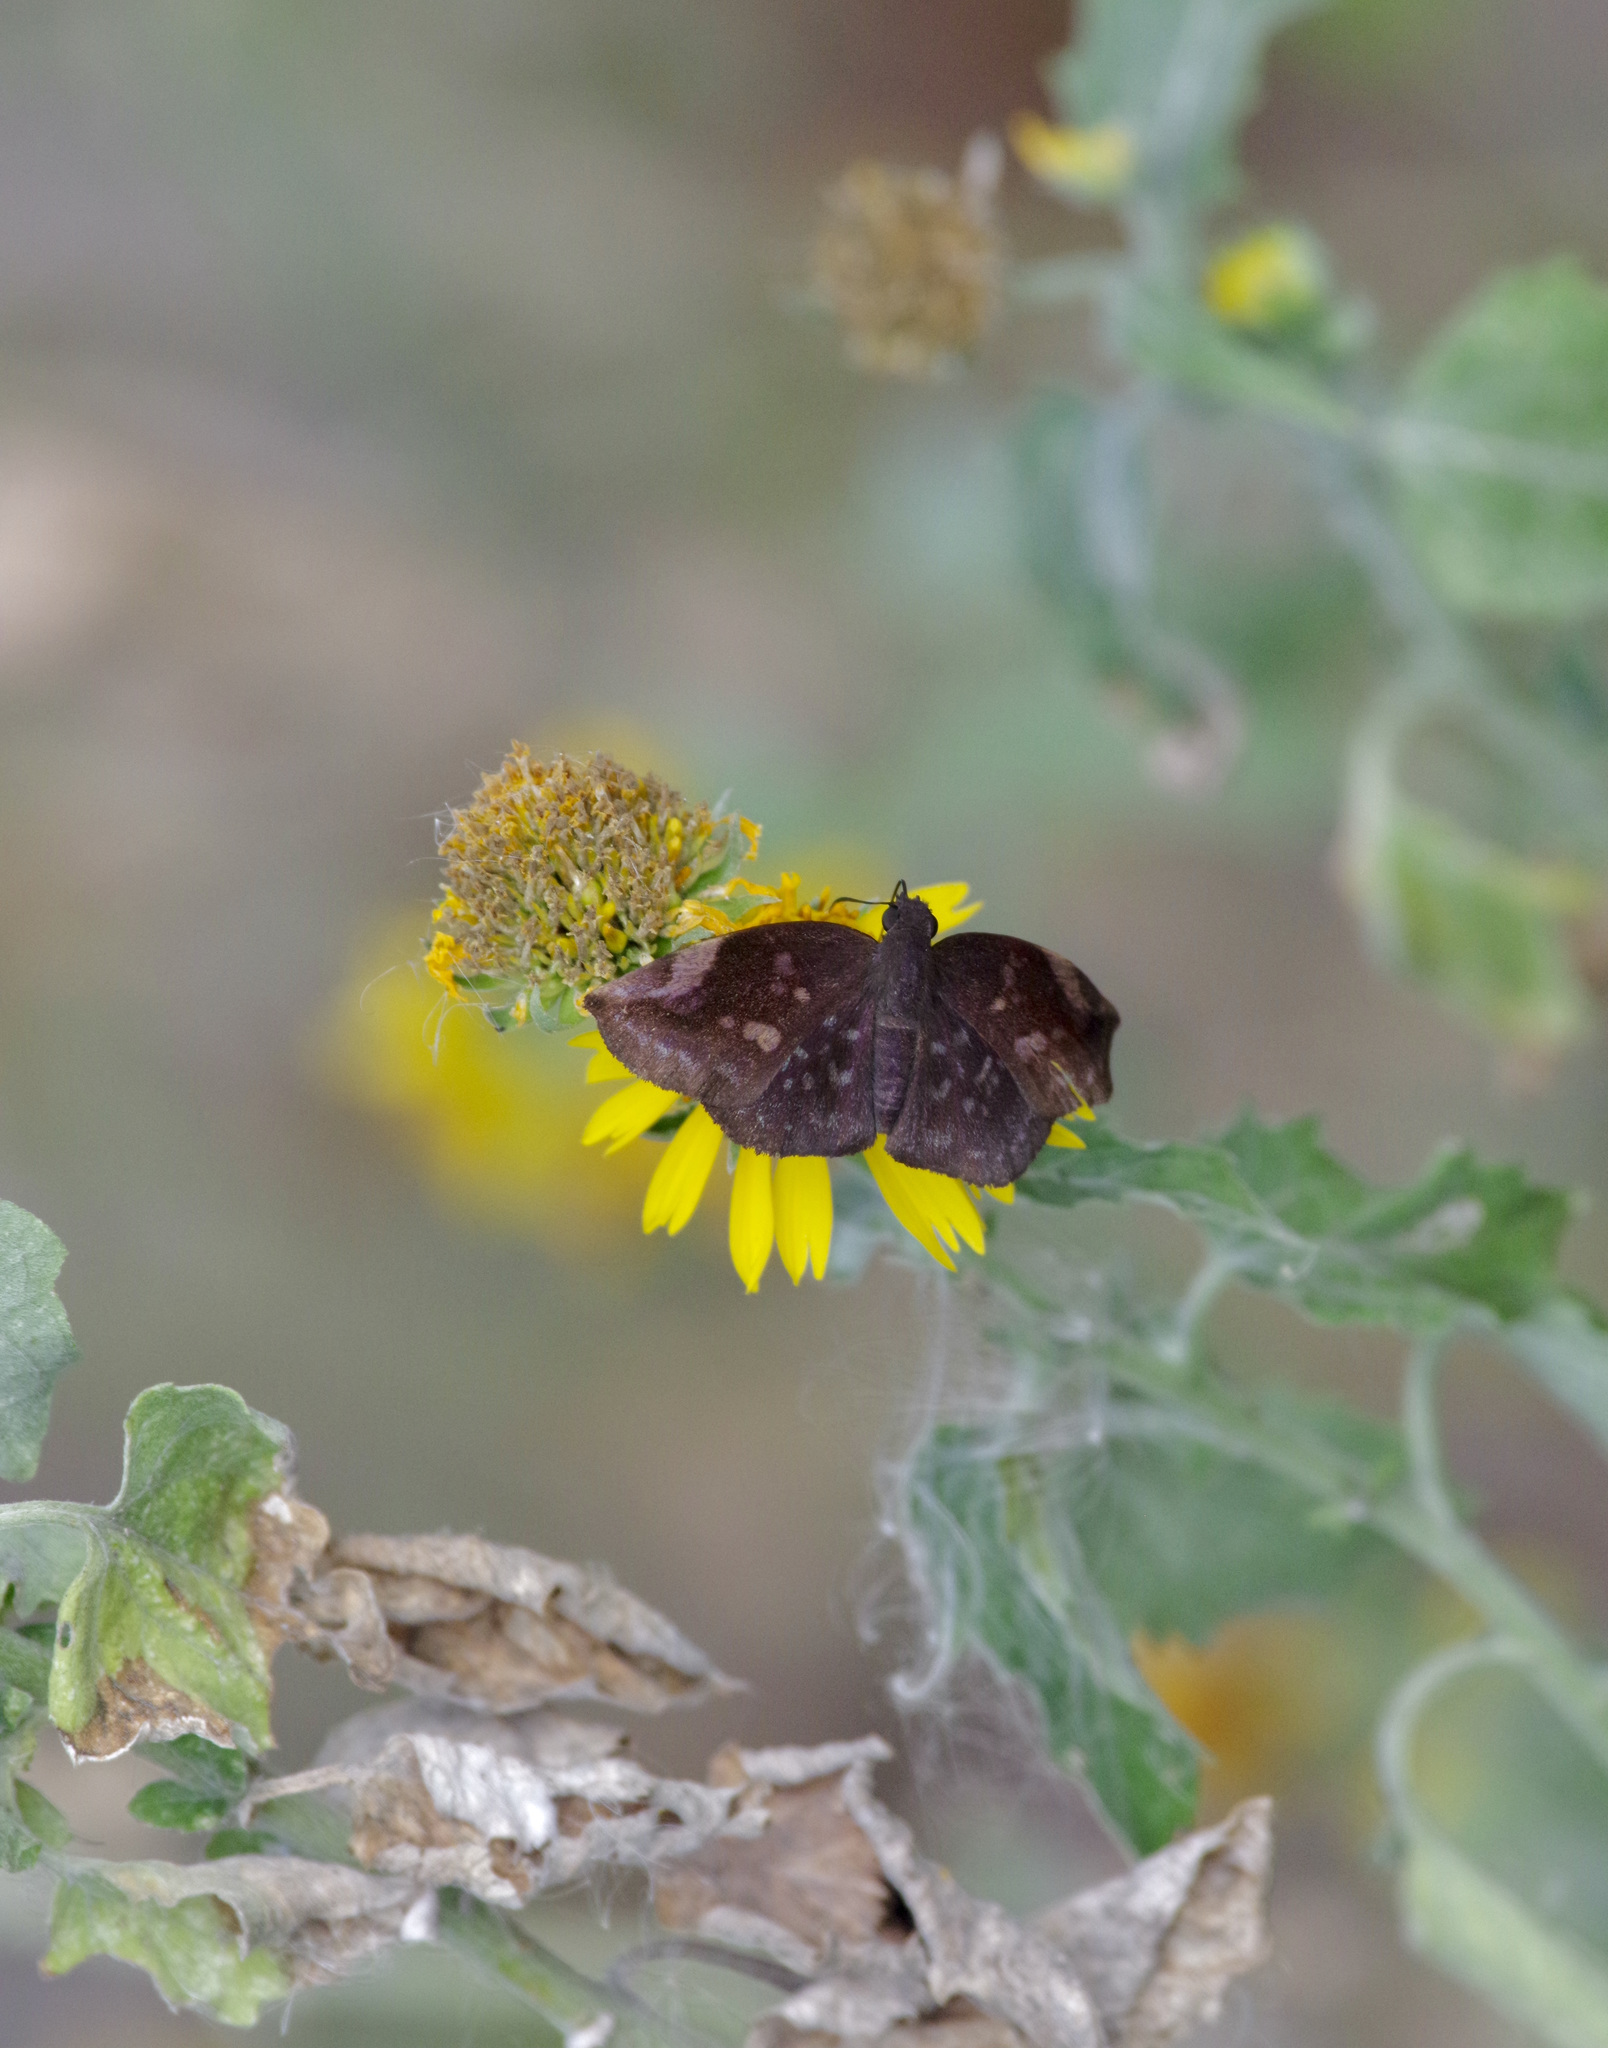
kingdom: Animalia
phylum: Arthropoda
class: Insecta
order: Lepidoptera
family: Hesperiidae
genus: Achlyodes
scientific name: Achlyodes thraso
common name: Sickle-winged skipper
